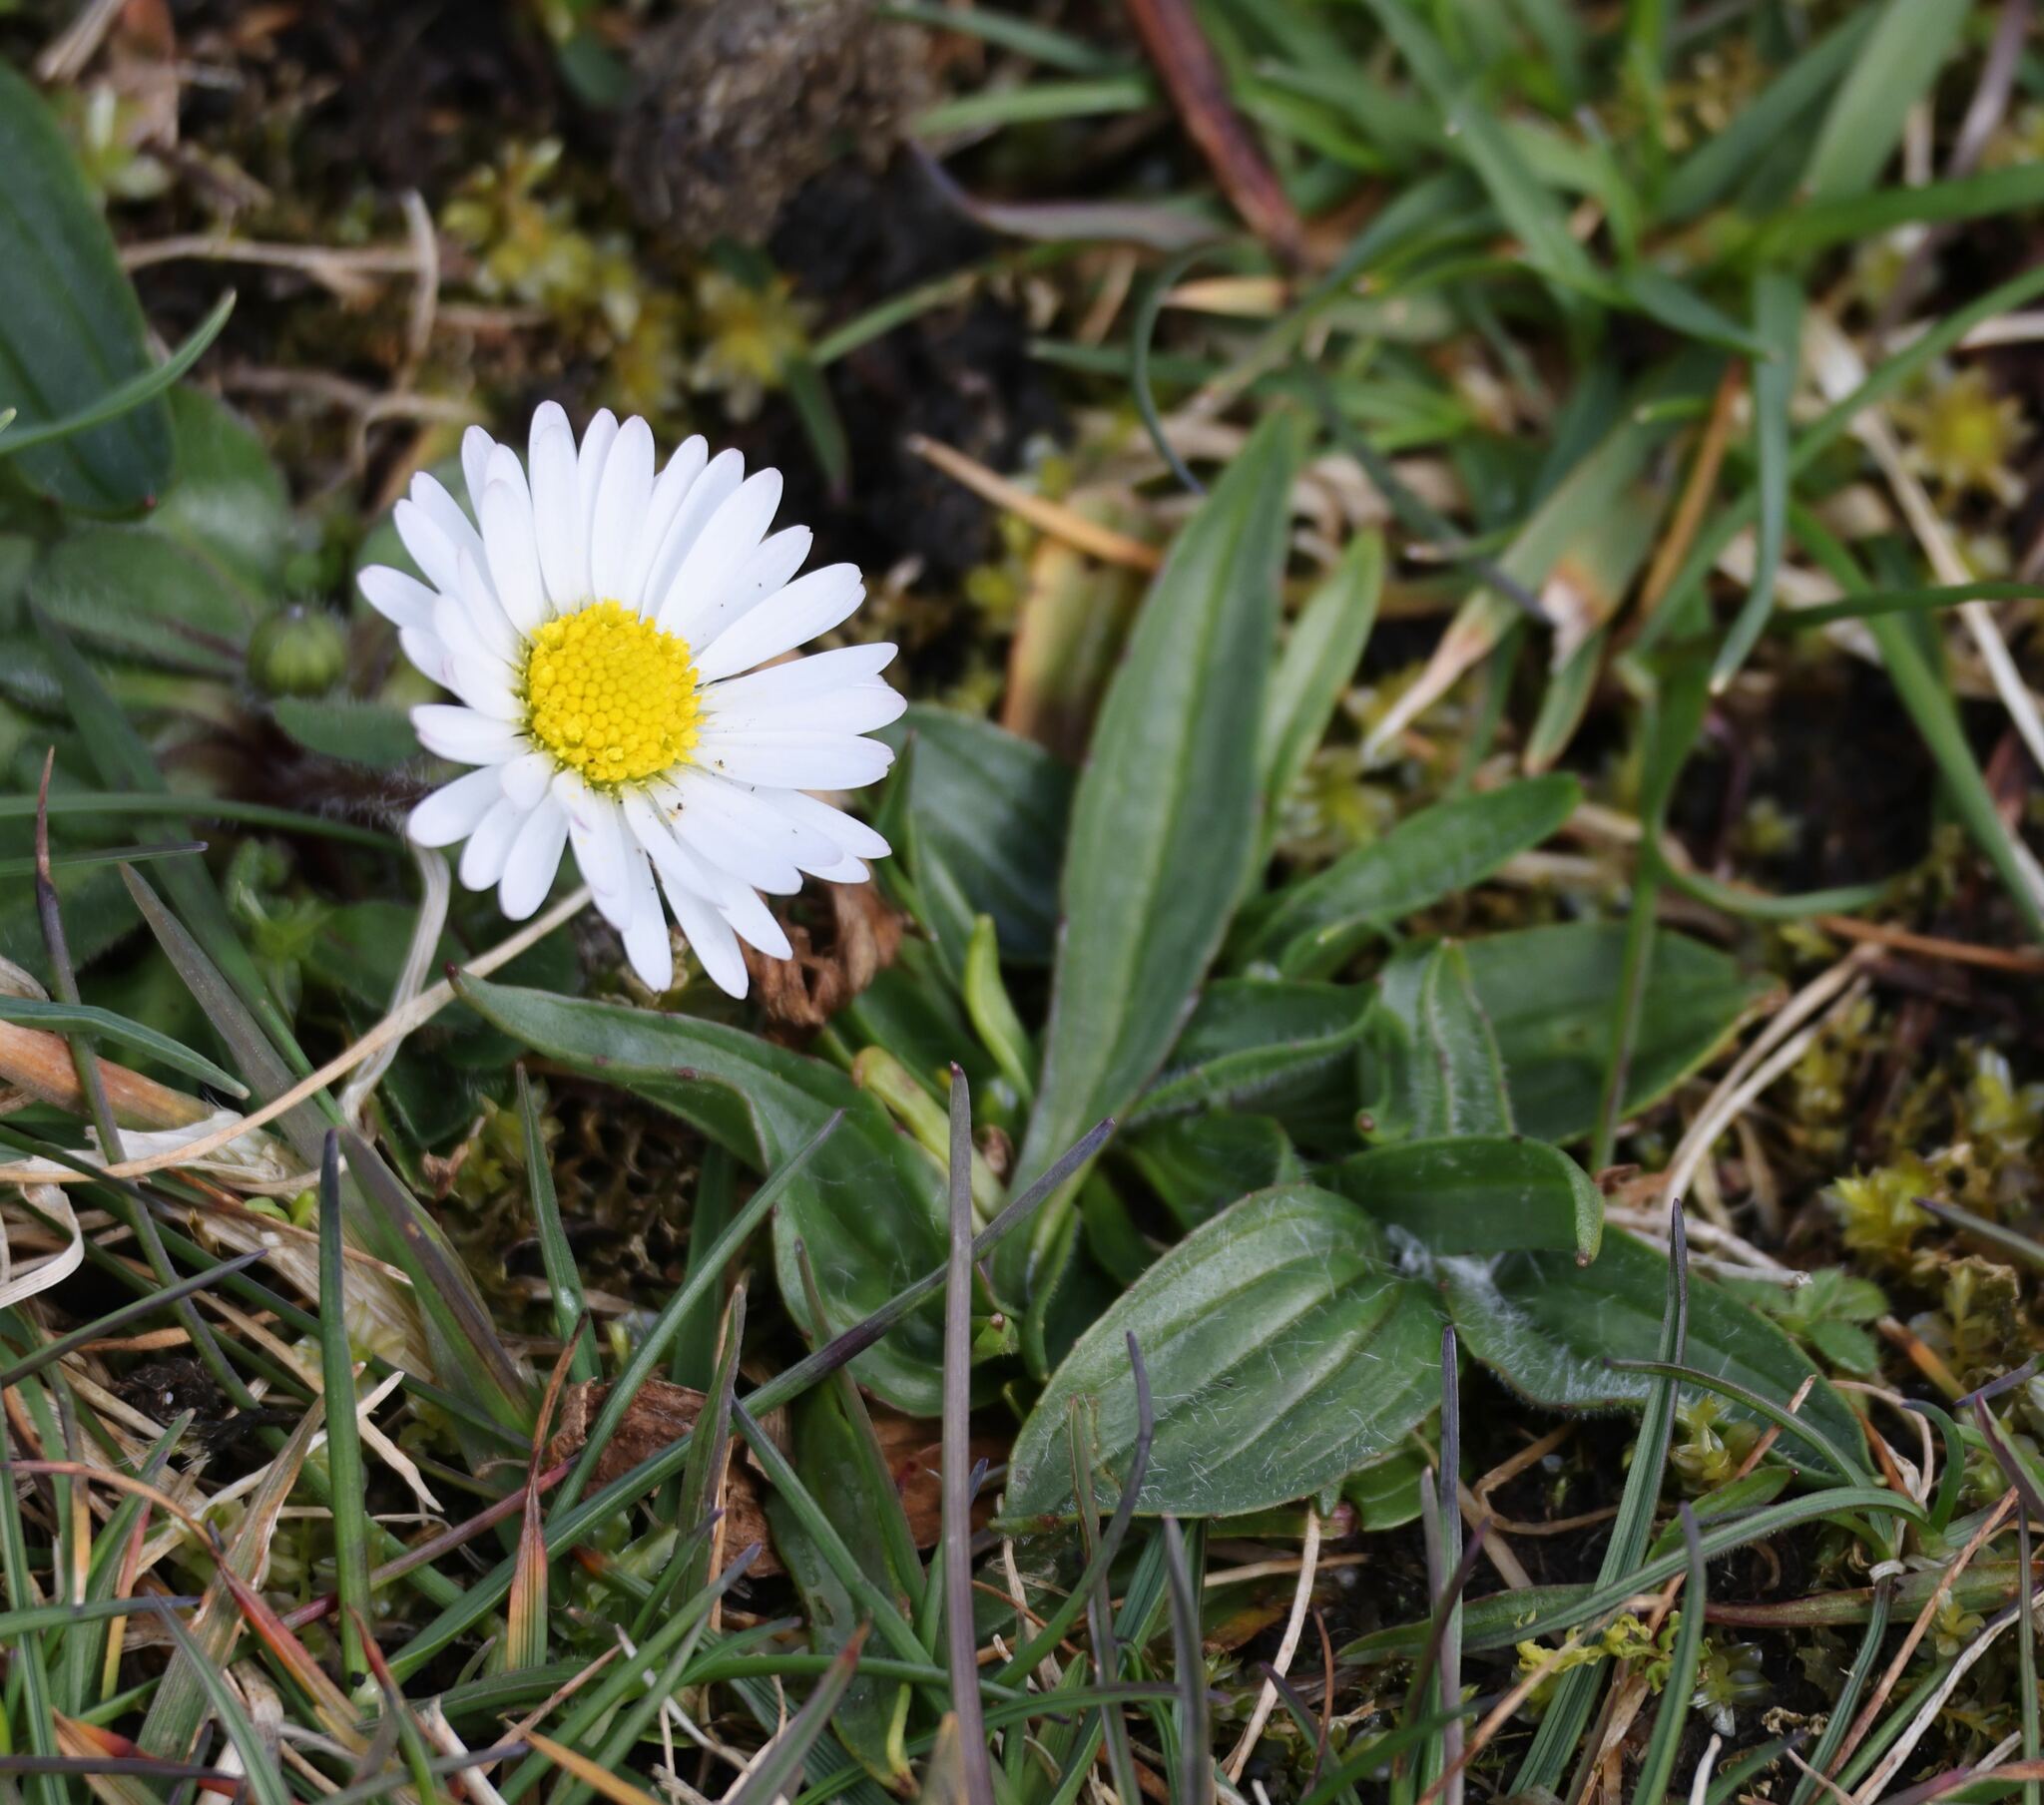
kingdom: Plantae
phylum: Tracheophyta
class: Magnoliopsida
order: Asterales
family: Asteraceae
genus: Bellis
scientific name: Bellis perennis
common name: Lawndaisy
